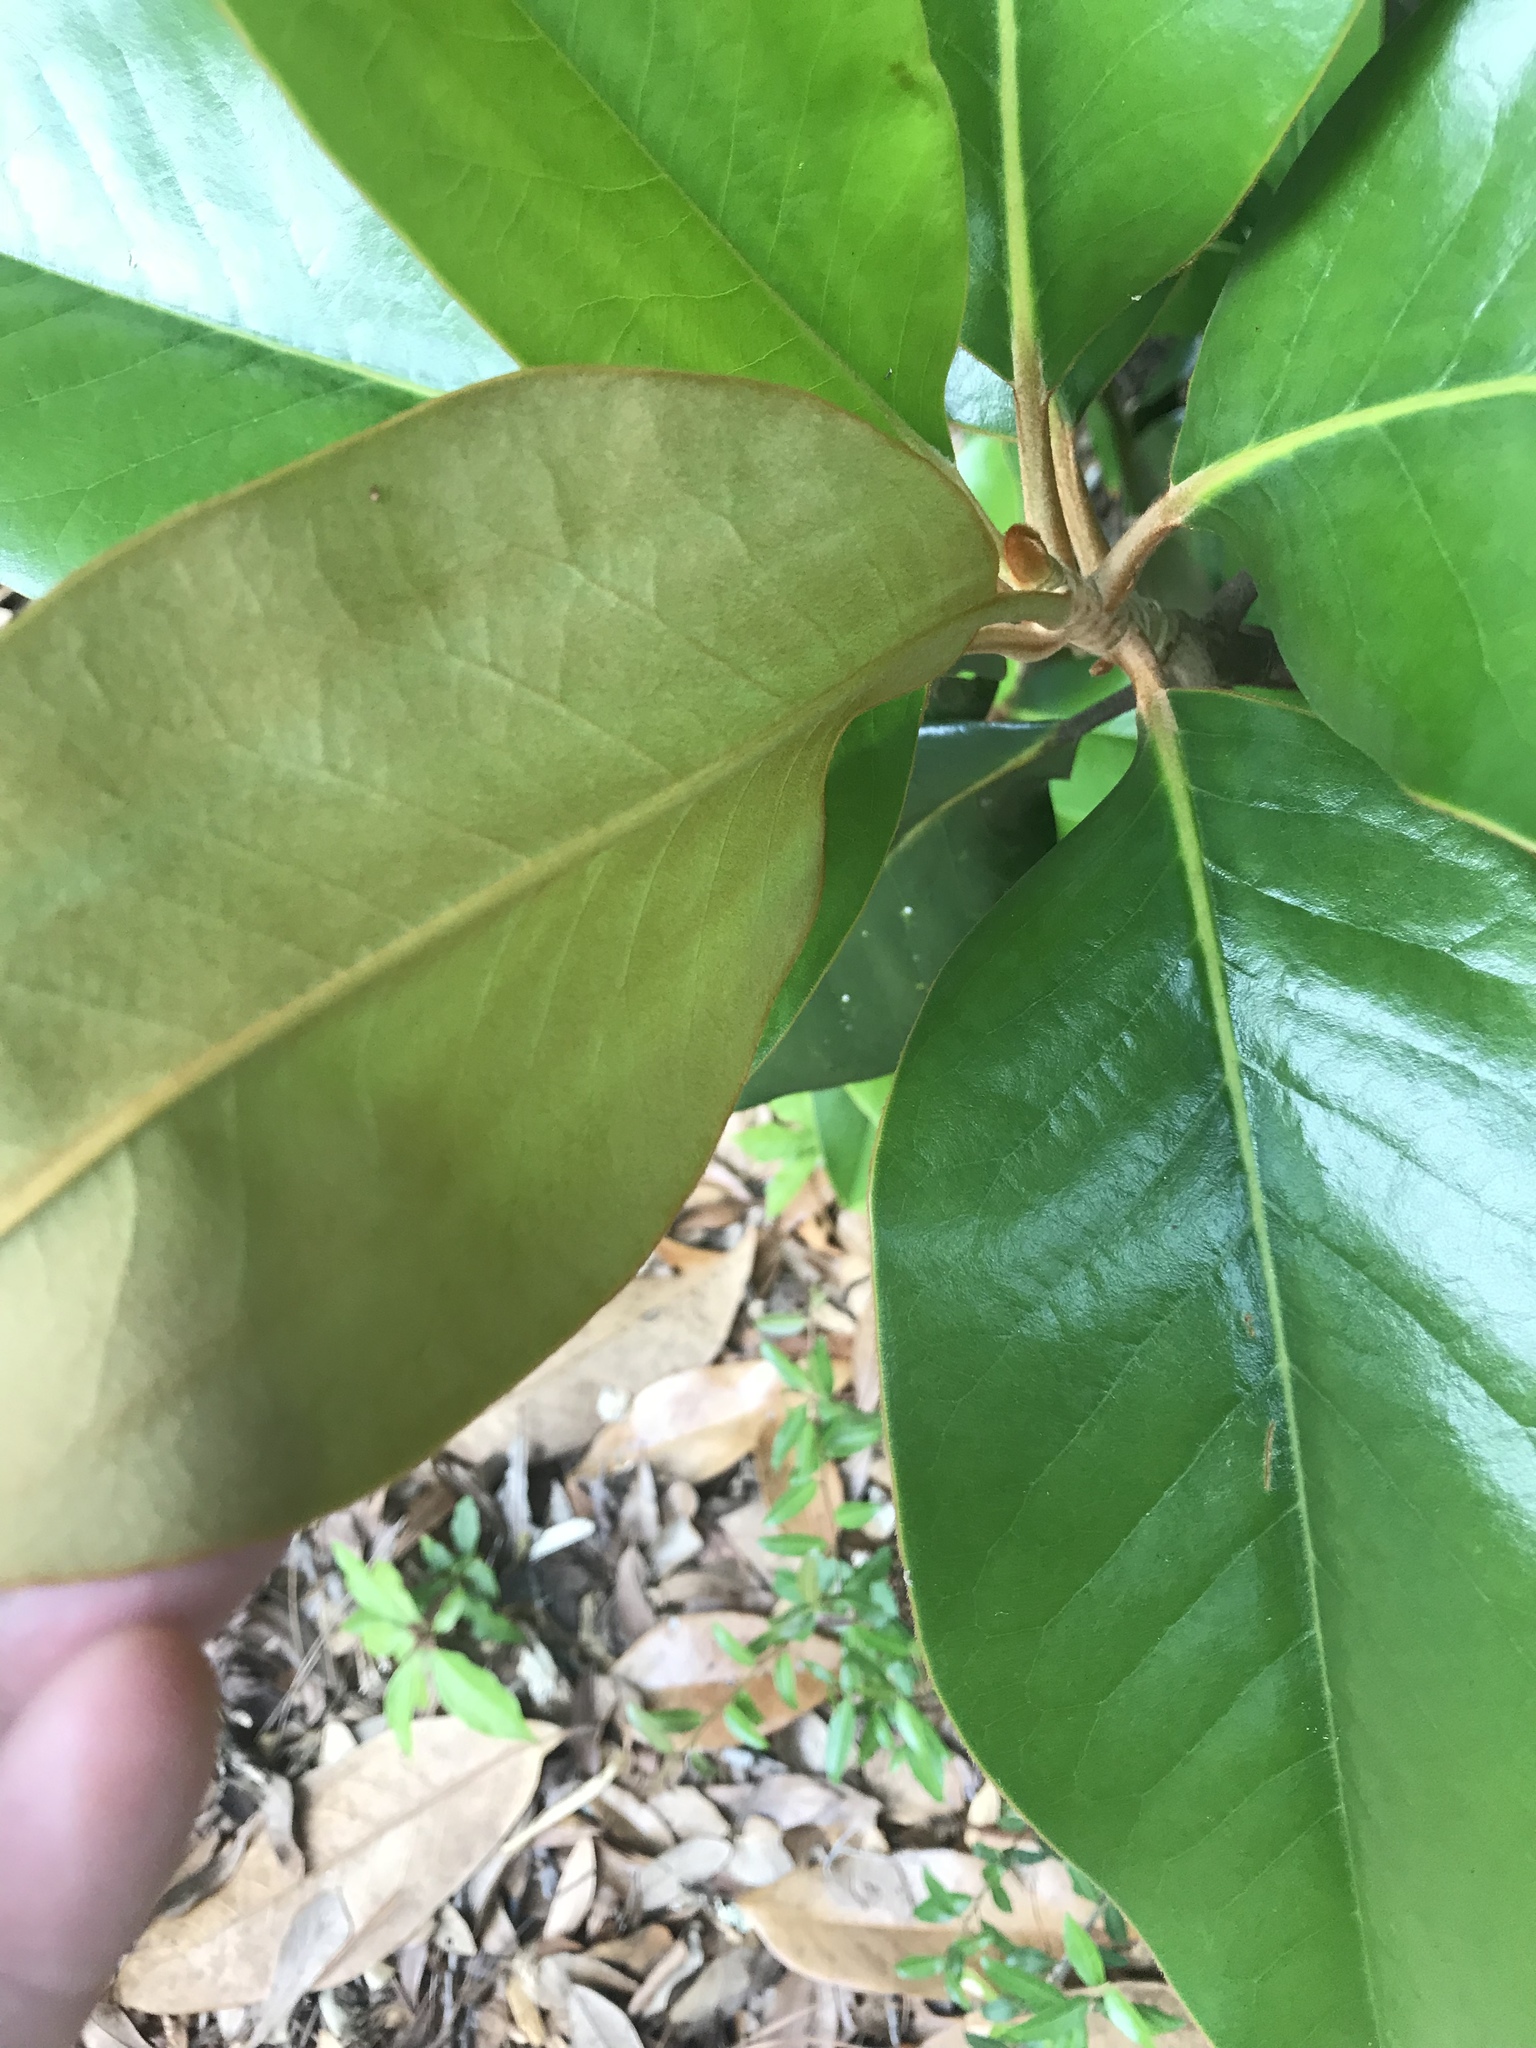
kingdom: Plantae
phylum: Tracheophyta
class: Magnoliopsida
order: Magnoliales
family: Magnoliaceae
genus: Magnolia
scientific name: Magnolia grandiflora
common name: Southern magnolia
